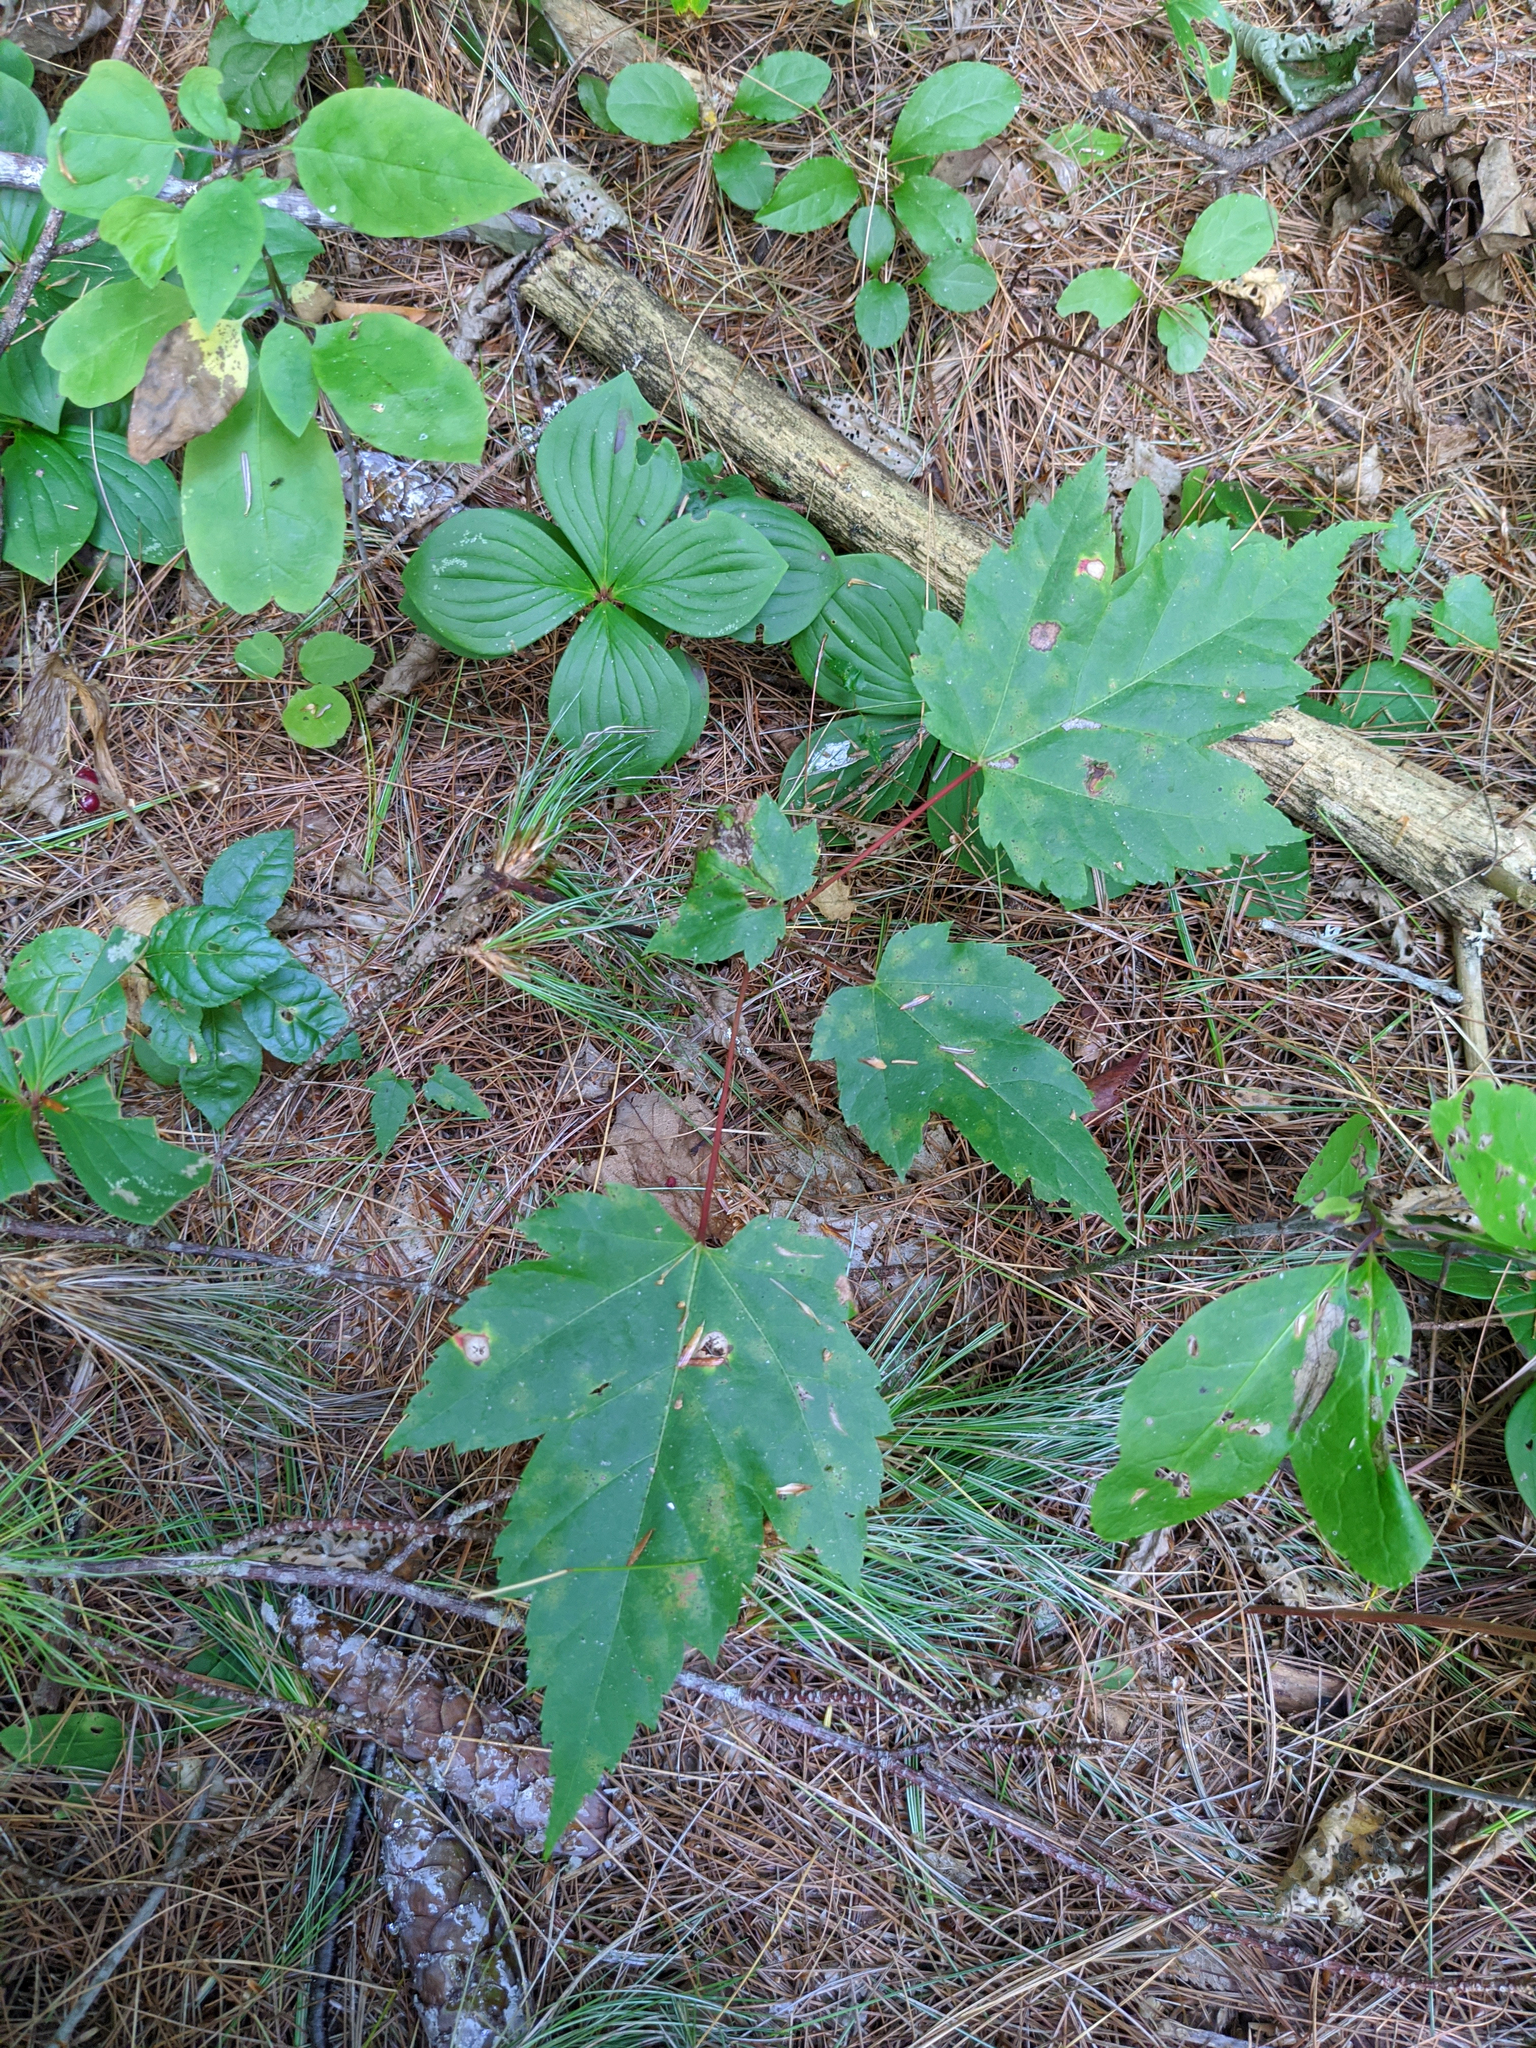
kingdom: Plantae
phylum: Tracheophyta
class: Magnoliopsida
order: Sapindales
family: Sapindaceae
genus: Acer
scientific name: Acer rubrum
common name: Red maple
